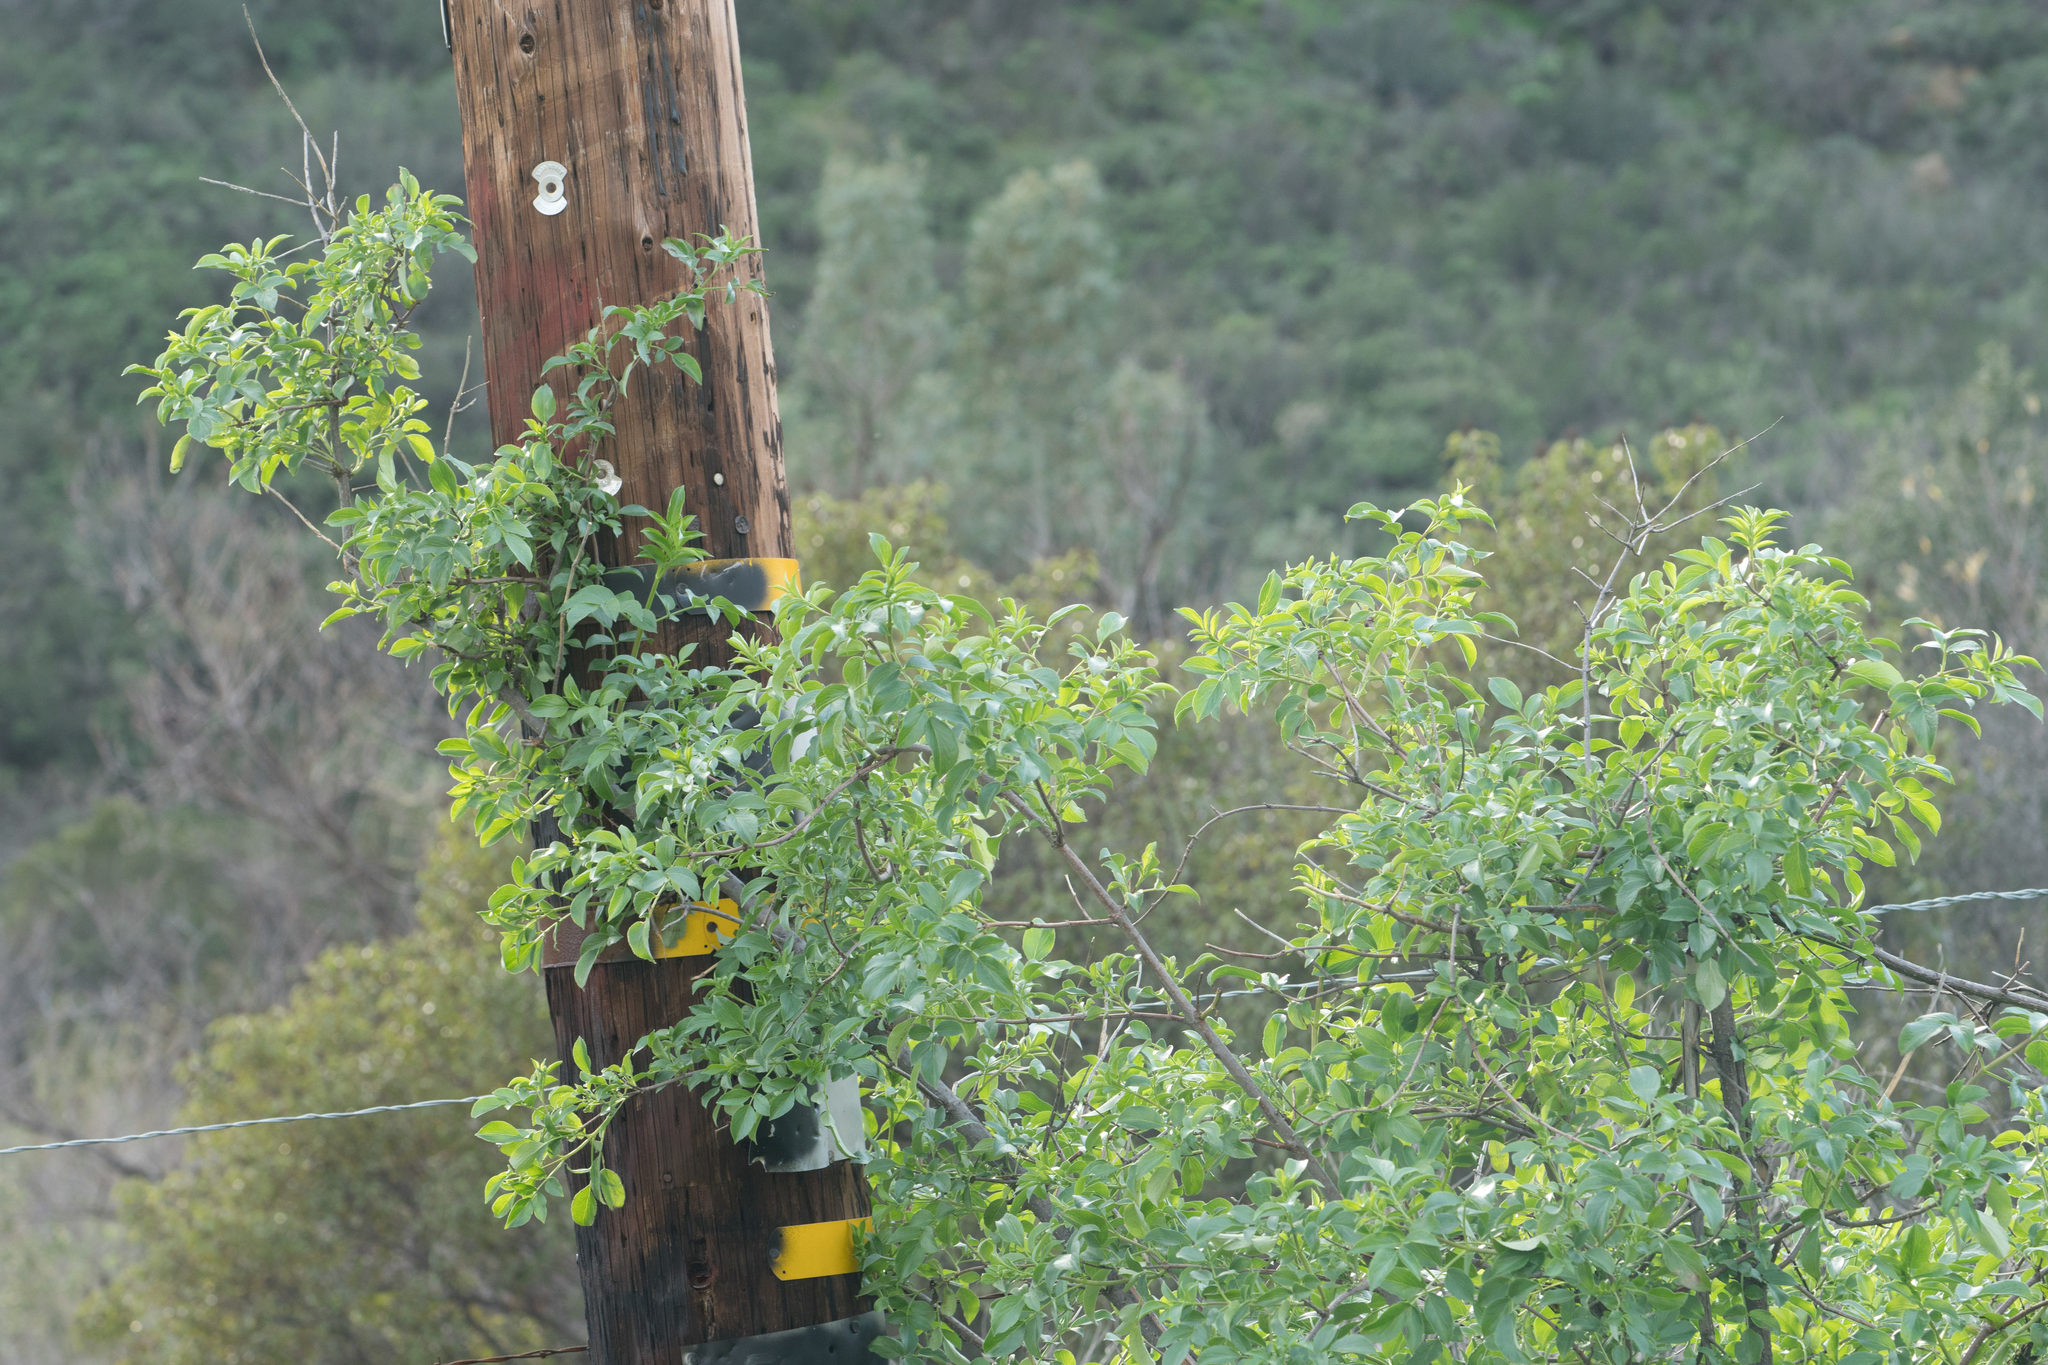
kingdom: Plantae
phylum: Tracheophyta
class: Magnoliopsida
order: Dipsacales
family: Viburnaceae
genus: Sambucus
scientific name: Sambucus cerulea
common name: Blue elder
